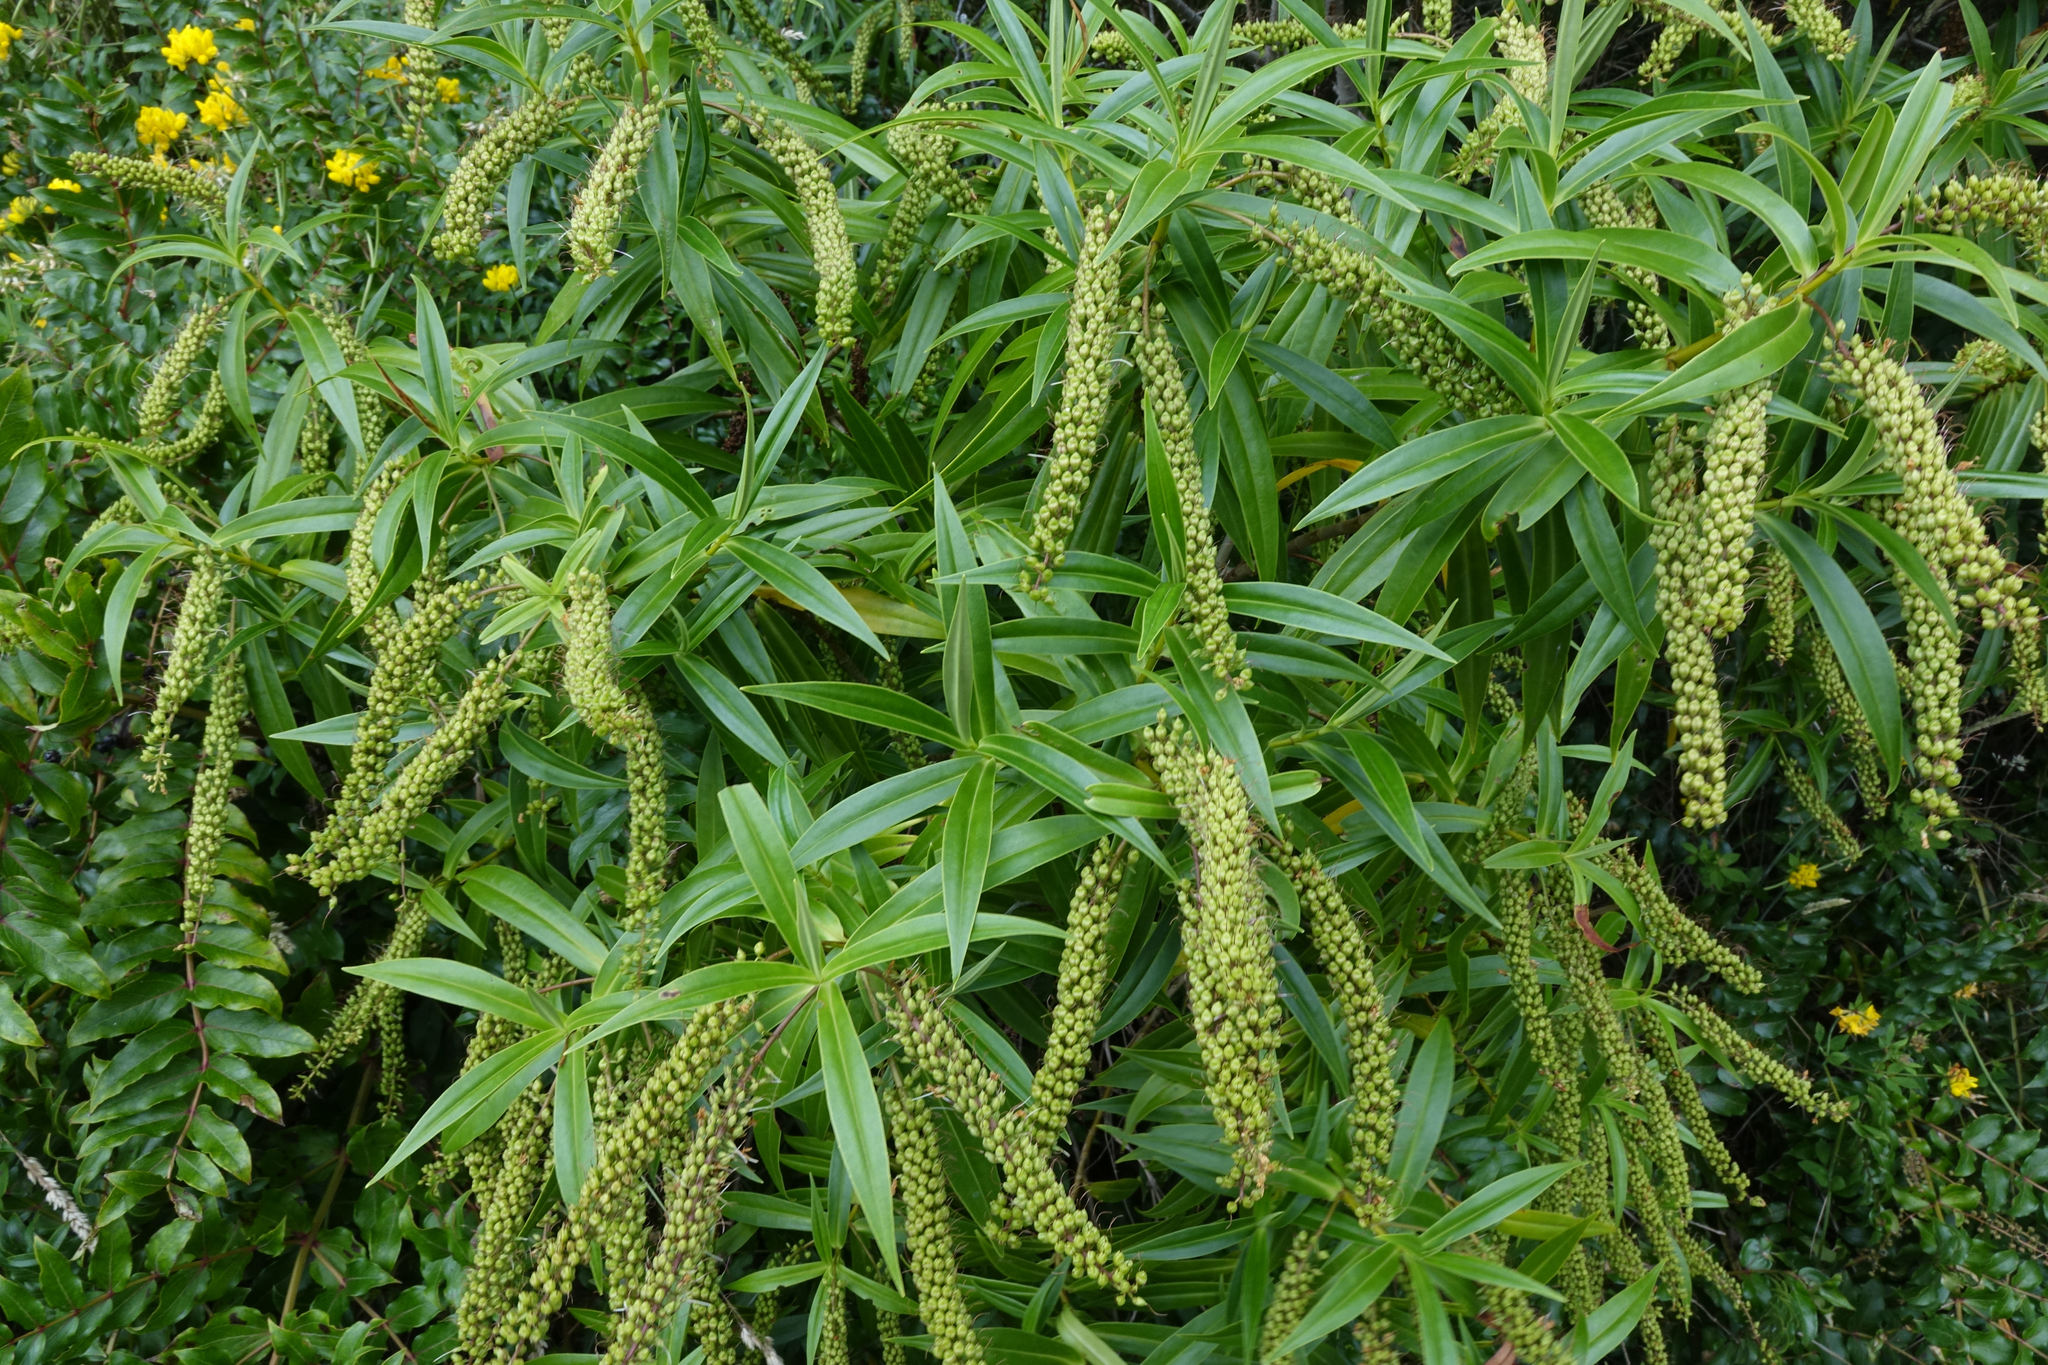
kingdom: Plantae
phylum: Tracheophyta
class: Magnoliopsida
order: Lamiales
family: Plantaginaceae
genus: Veronica
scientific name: Veronica salicifolia
